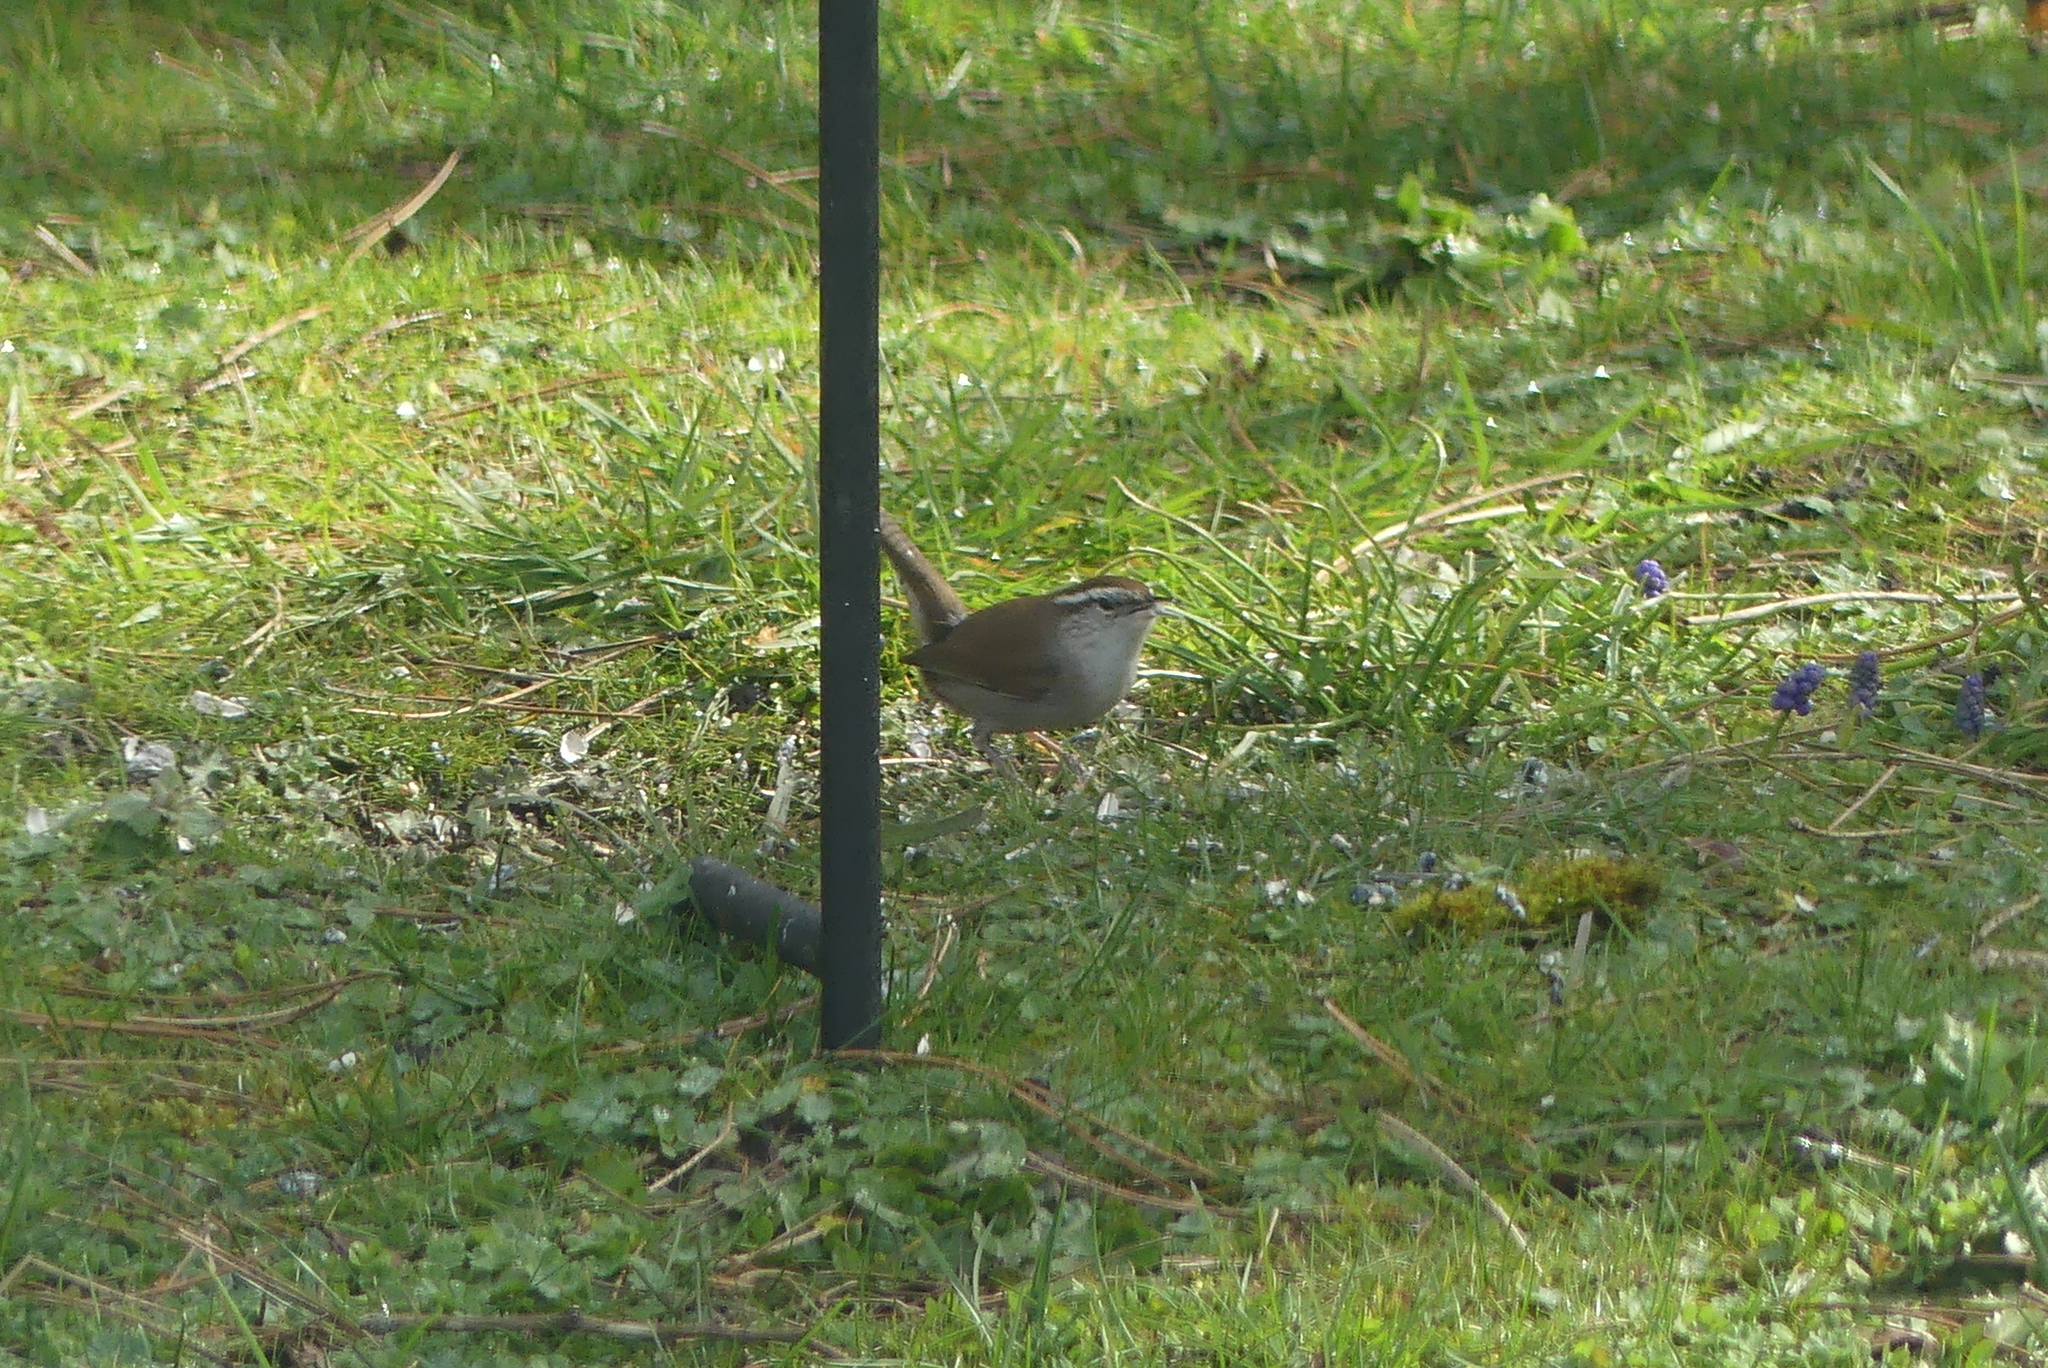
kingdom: Animalia
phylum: Chordata
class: Aves
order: Passeriformes
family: Troglodytidae
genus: Thryomanes
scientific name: Thryomanes bewickii
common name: Bewick's wren
